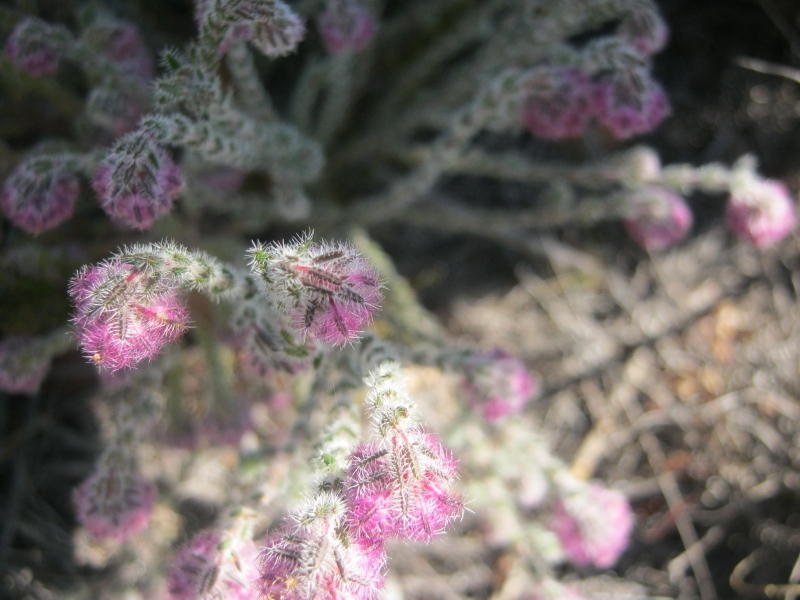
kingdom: Plantae
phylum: Tracheophyta
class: Magnoliopsida
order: Ericales
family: Ericaceae
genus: Erica
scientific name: Erica solandra
